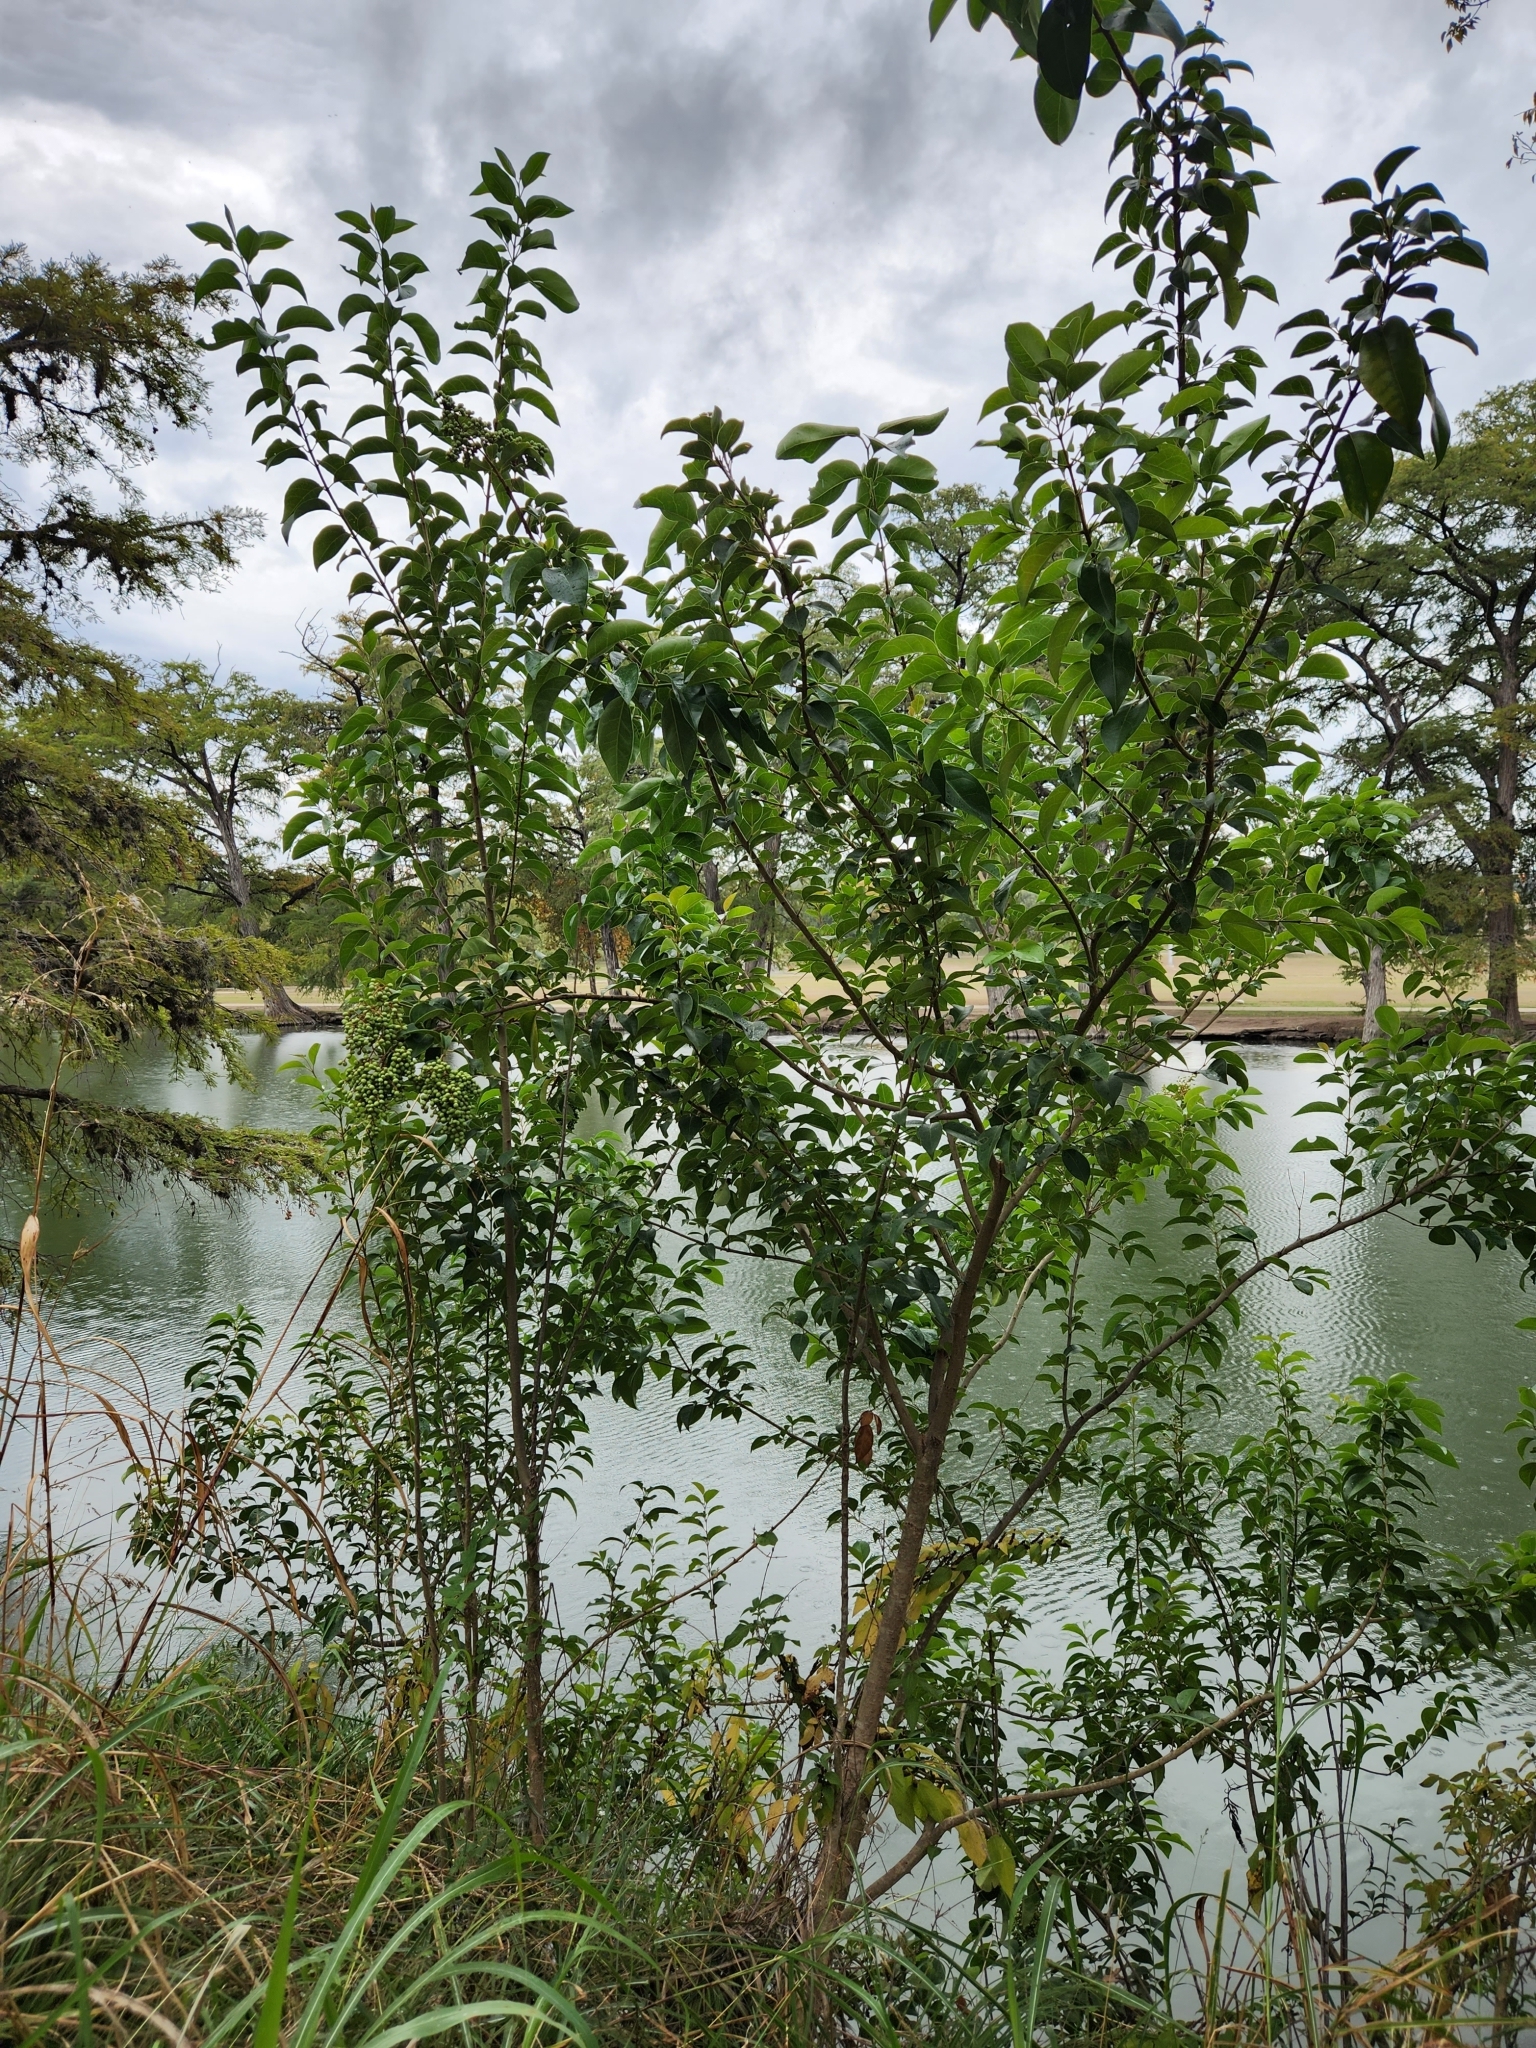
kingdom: Plantae
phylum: Tracheophyta
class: Magnoliopsida
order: Lamiales
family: Oleaceae
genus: Ligustrum
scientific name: Ligustrum lucidum
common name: Glossy privet
